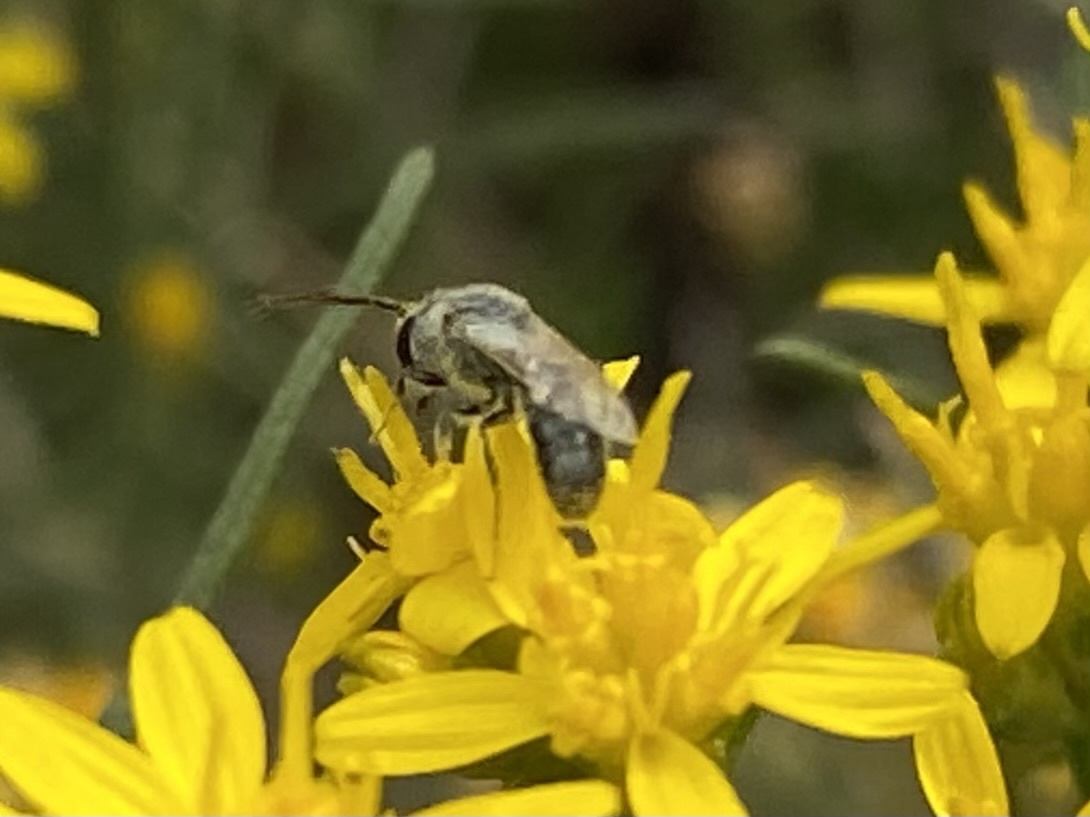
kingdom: Animalia
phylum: Arthropoda
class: Insecta
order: Hymenoptera
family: Halictidae
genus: Dialictus
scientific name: Dialictus
